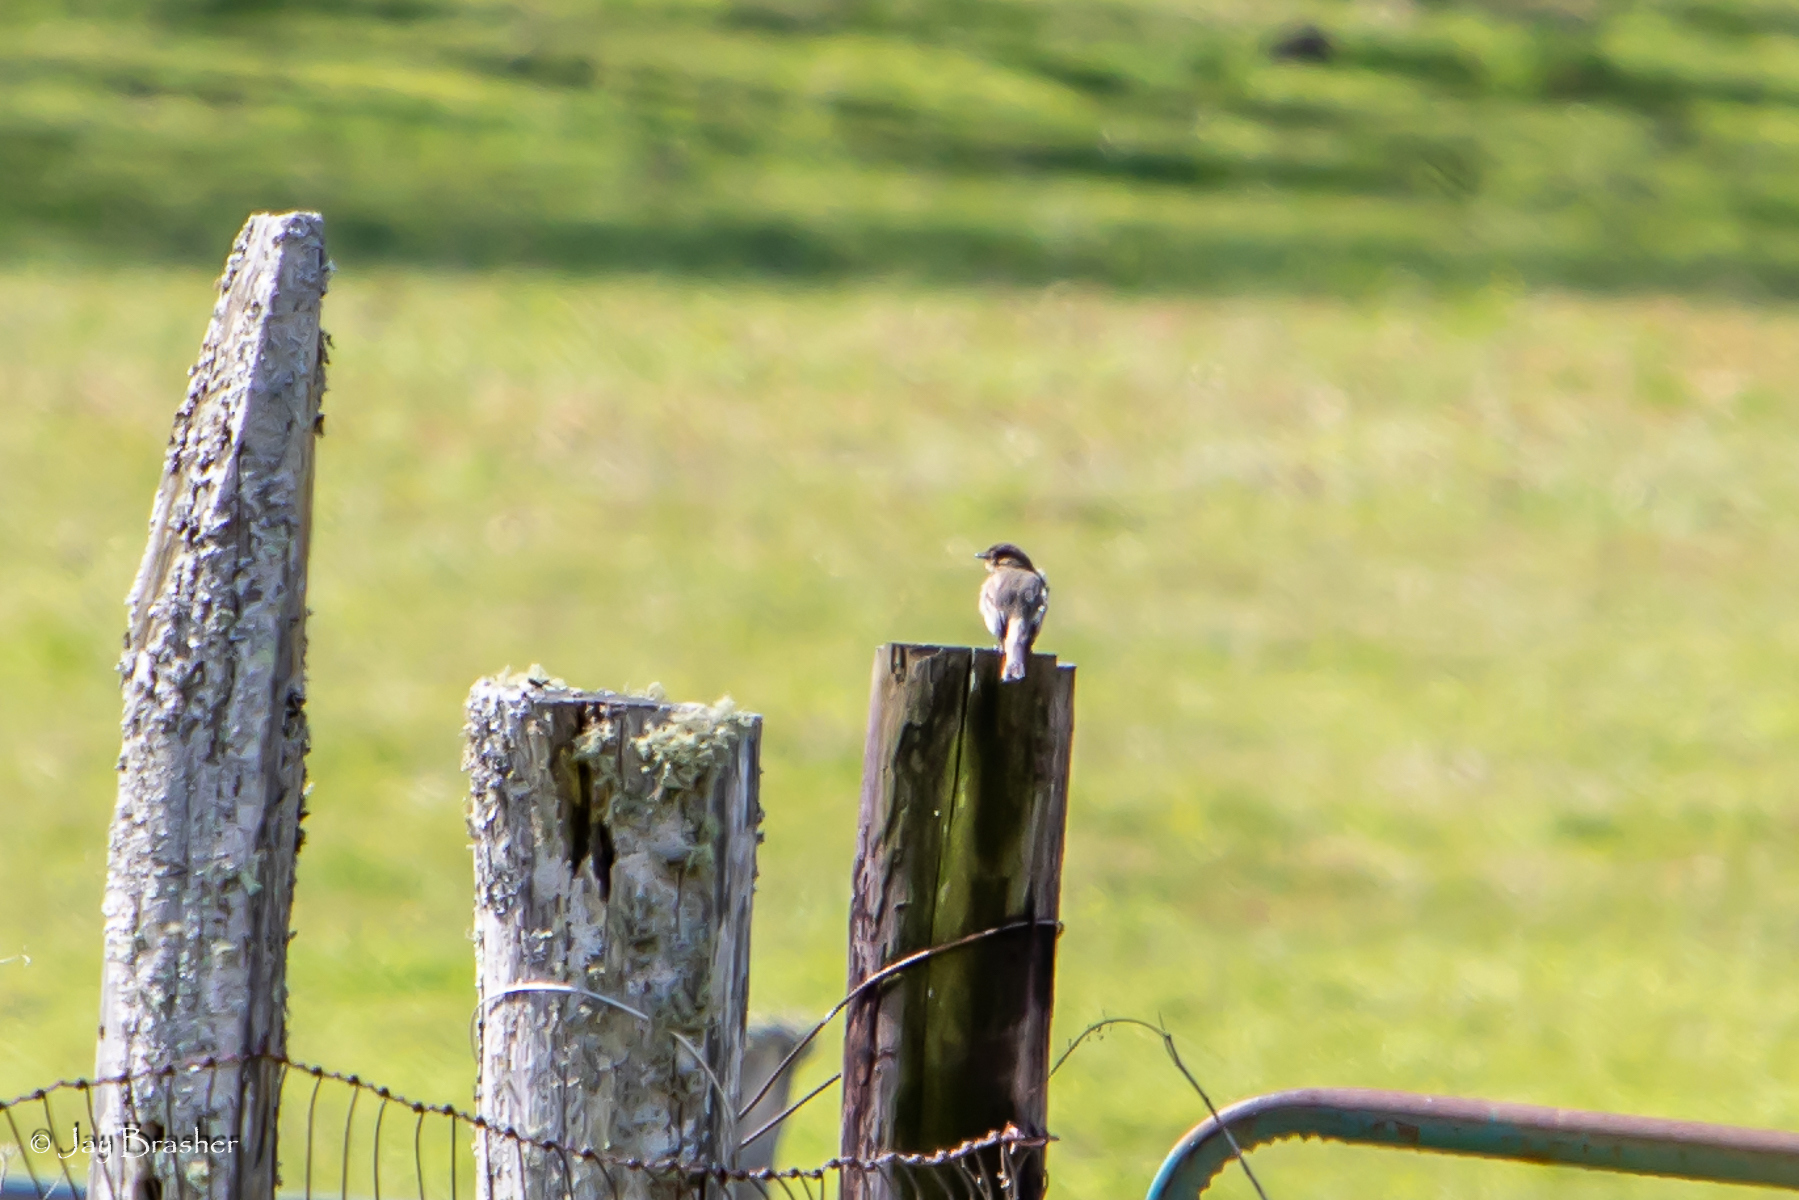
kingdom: Animalia
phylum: Chordata
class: Aves
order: Passeriformes
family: Tyrannidae
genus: Sayornis
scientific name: Sayornis phoebe
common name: Eastern phoebe
